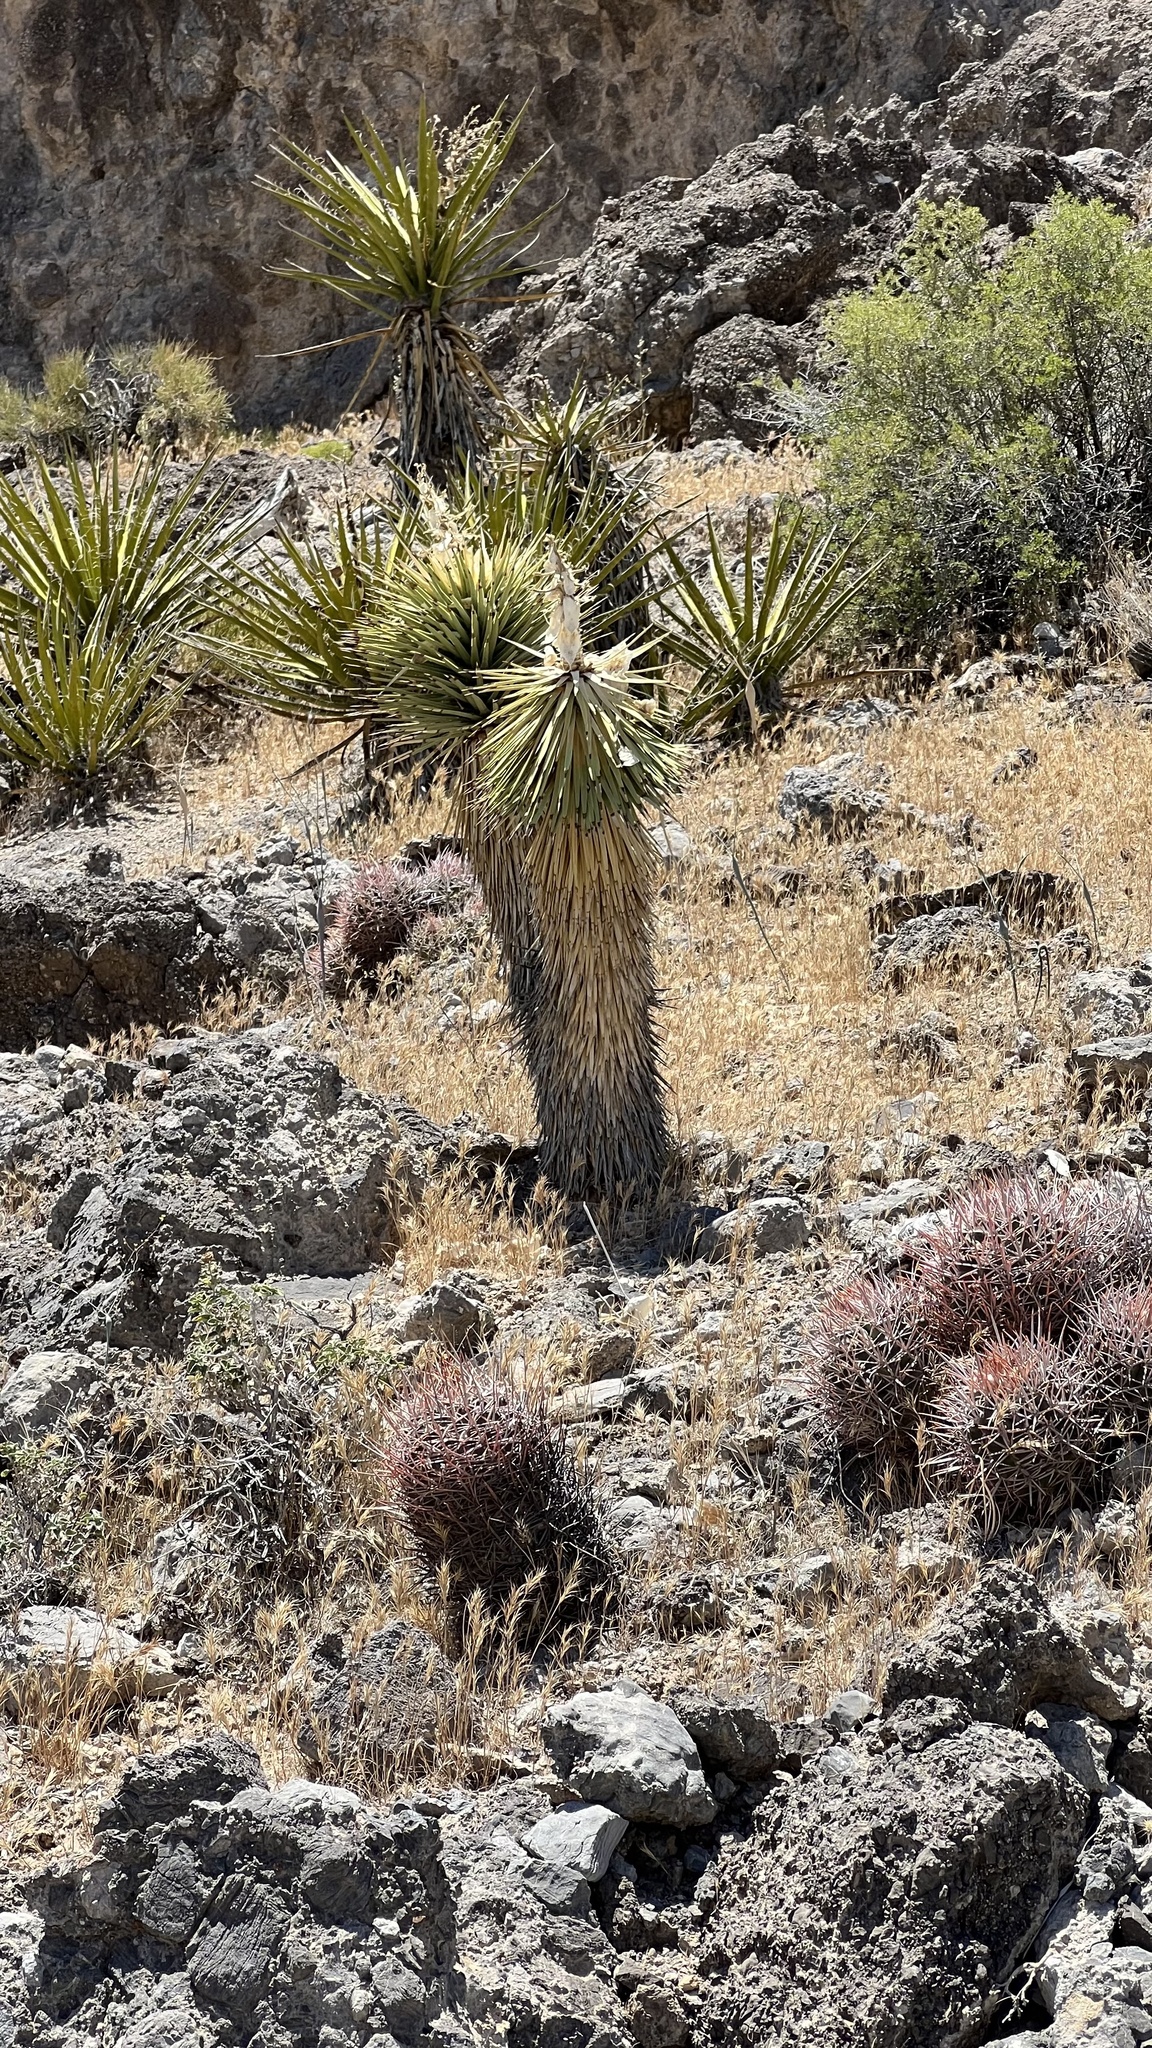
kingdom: Plantae
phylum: Tracheophyta
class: Liliopsida
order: Asparagales
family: Asparagaceae
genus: Yucca
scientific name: Yucca schidigera
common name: Mojave yucca
